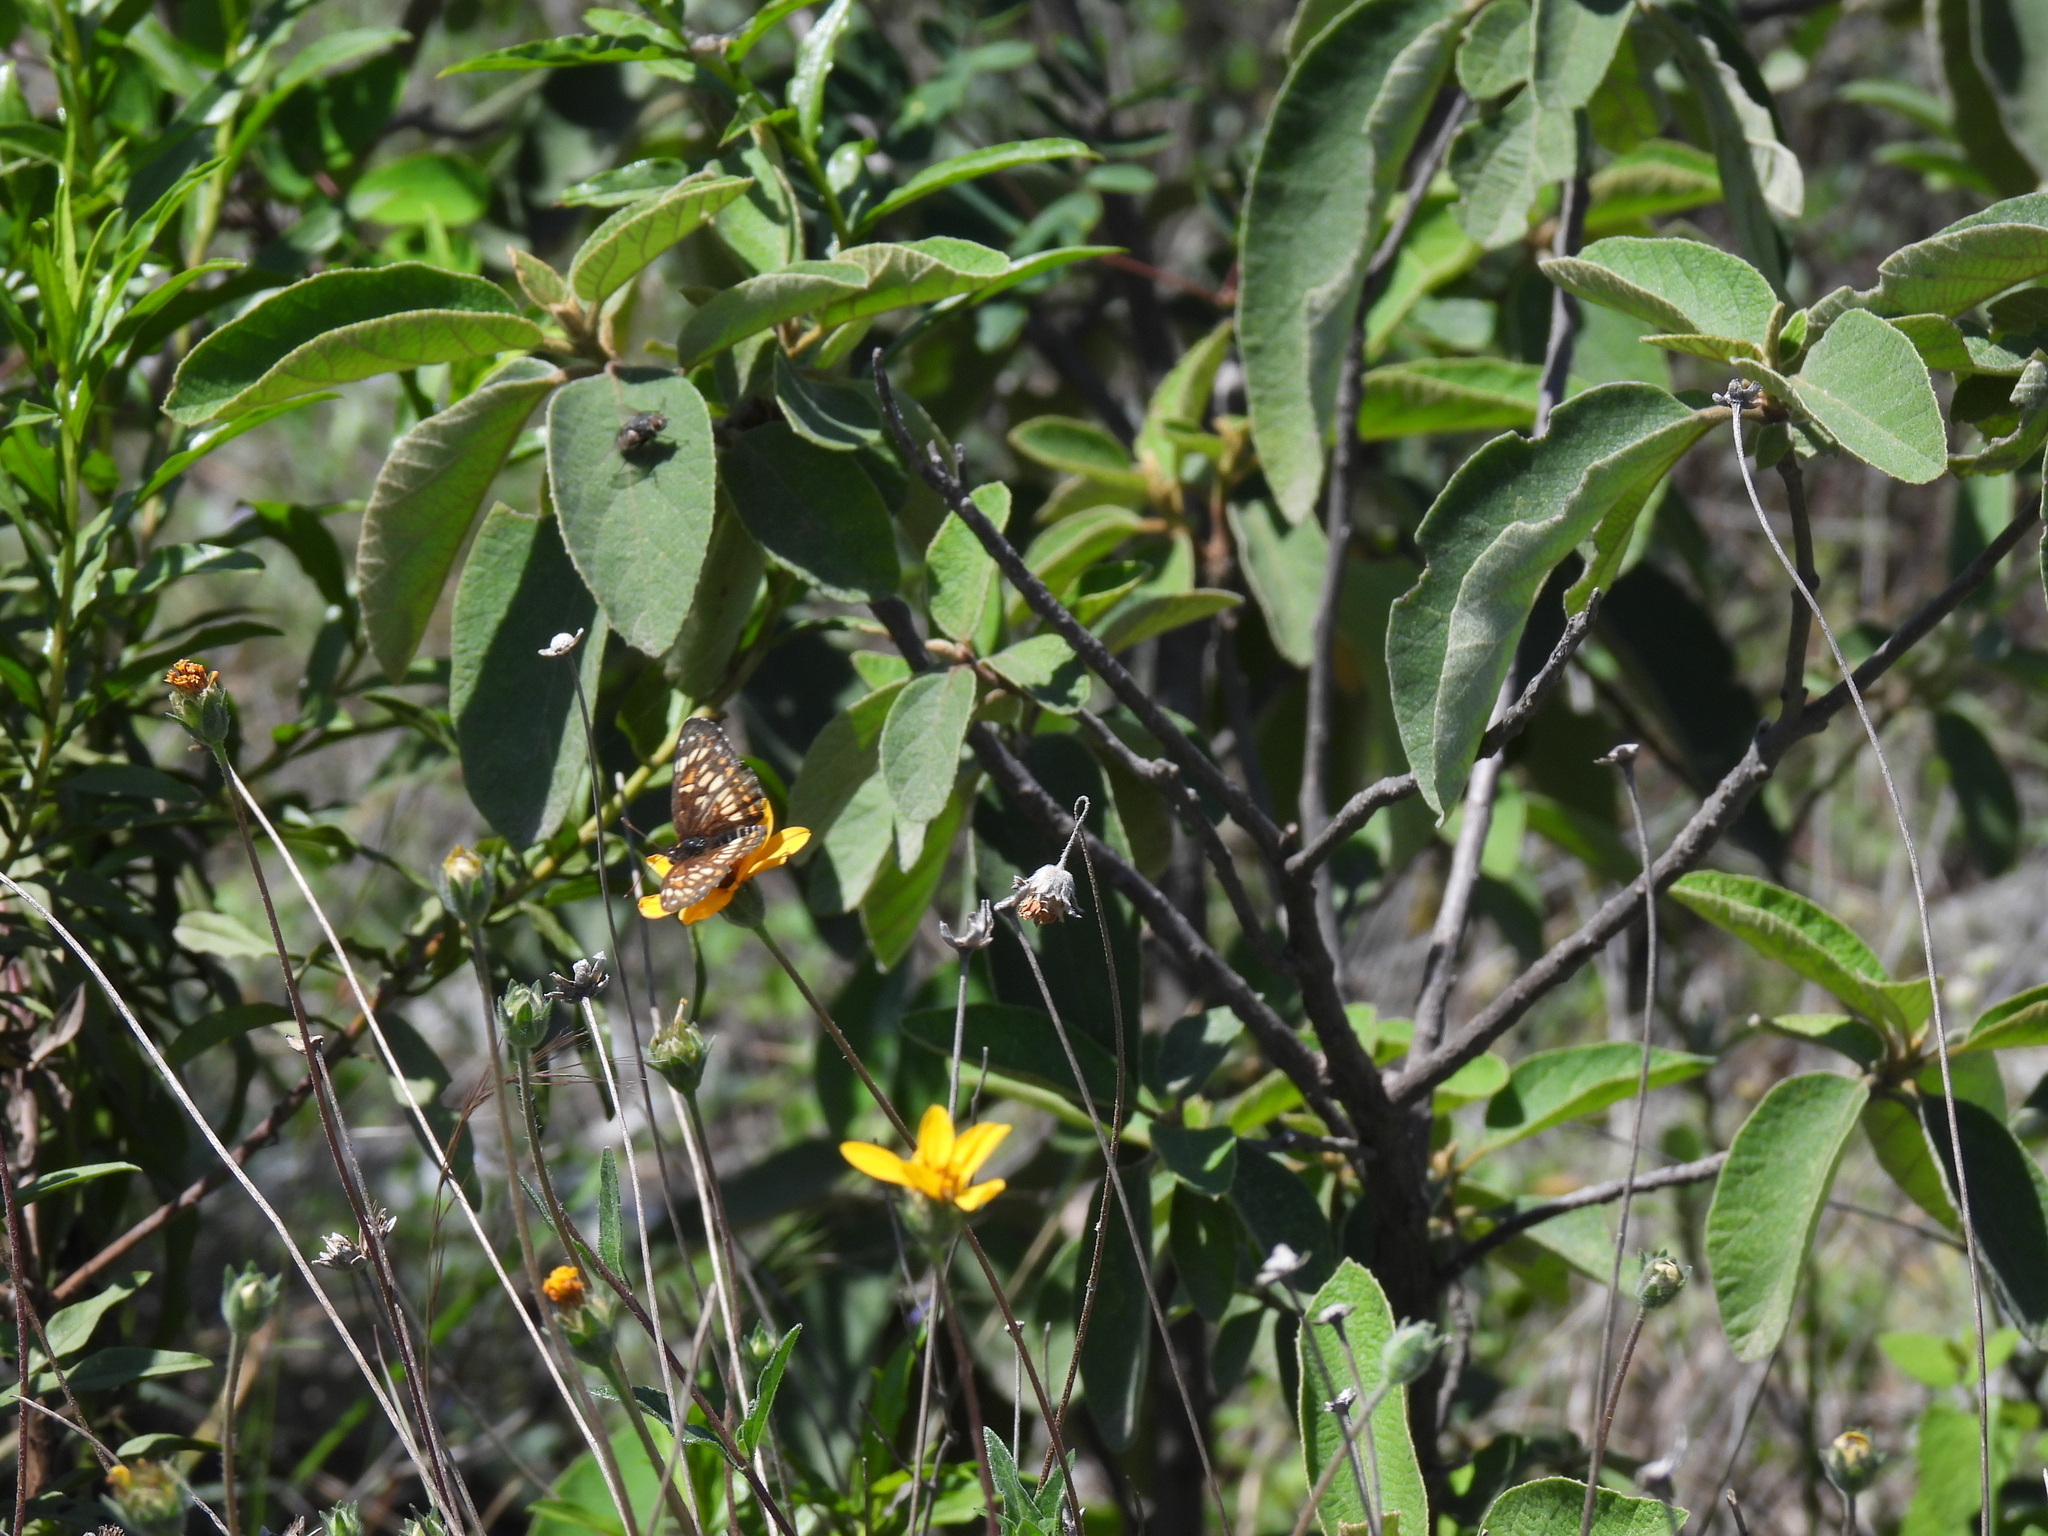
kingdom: Animalia
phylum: Arthropoda
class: Insecta
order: Lepidoptera
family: Nymphalidae
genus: Chlosyne
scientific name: Chlosyne
